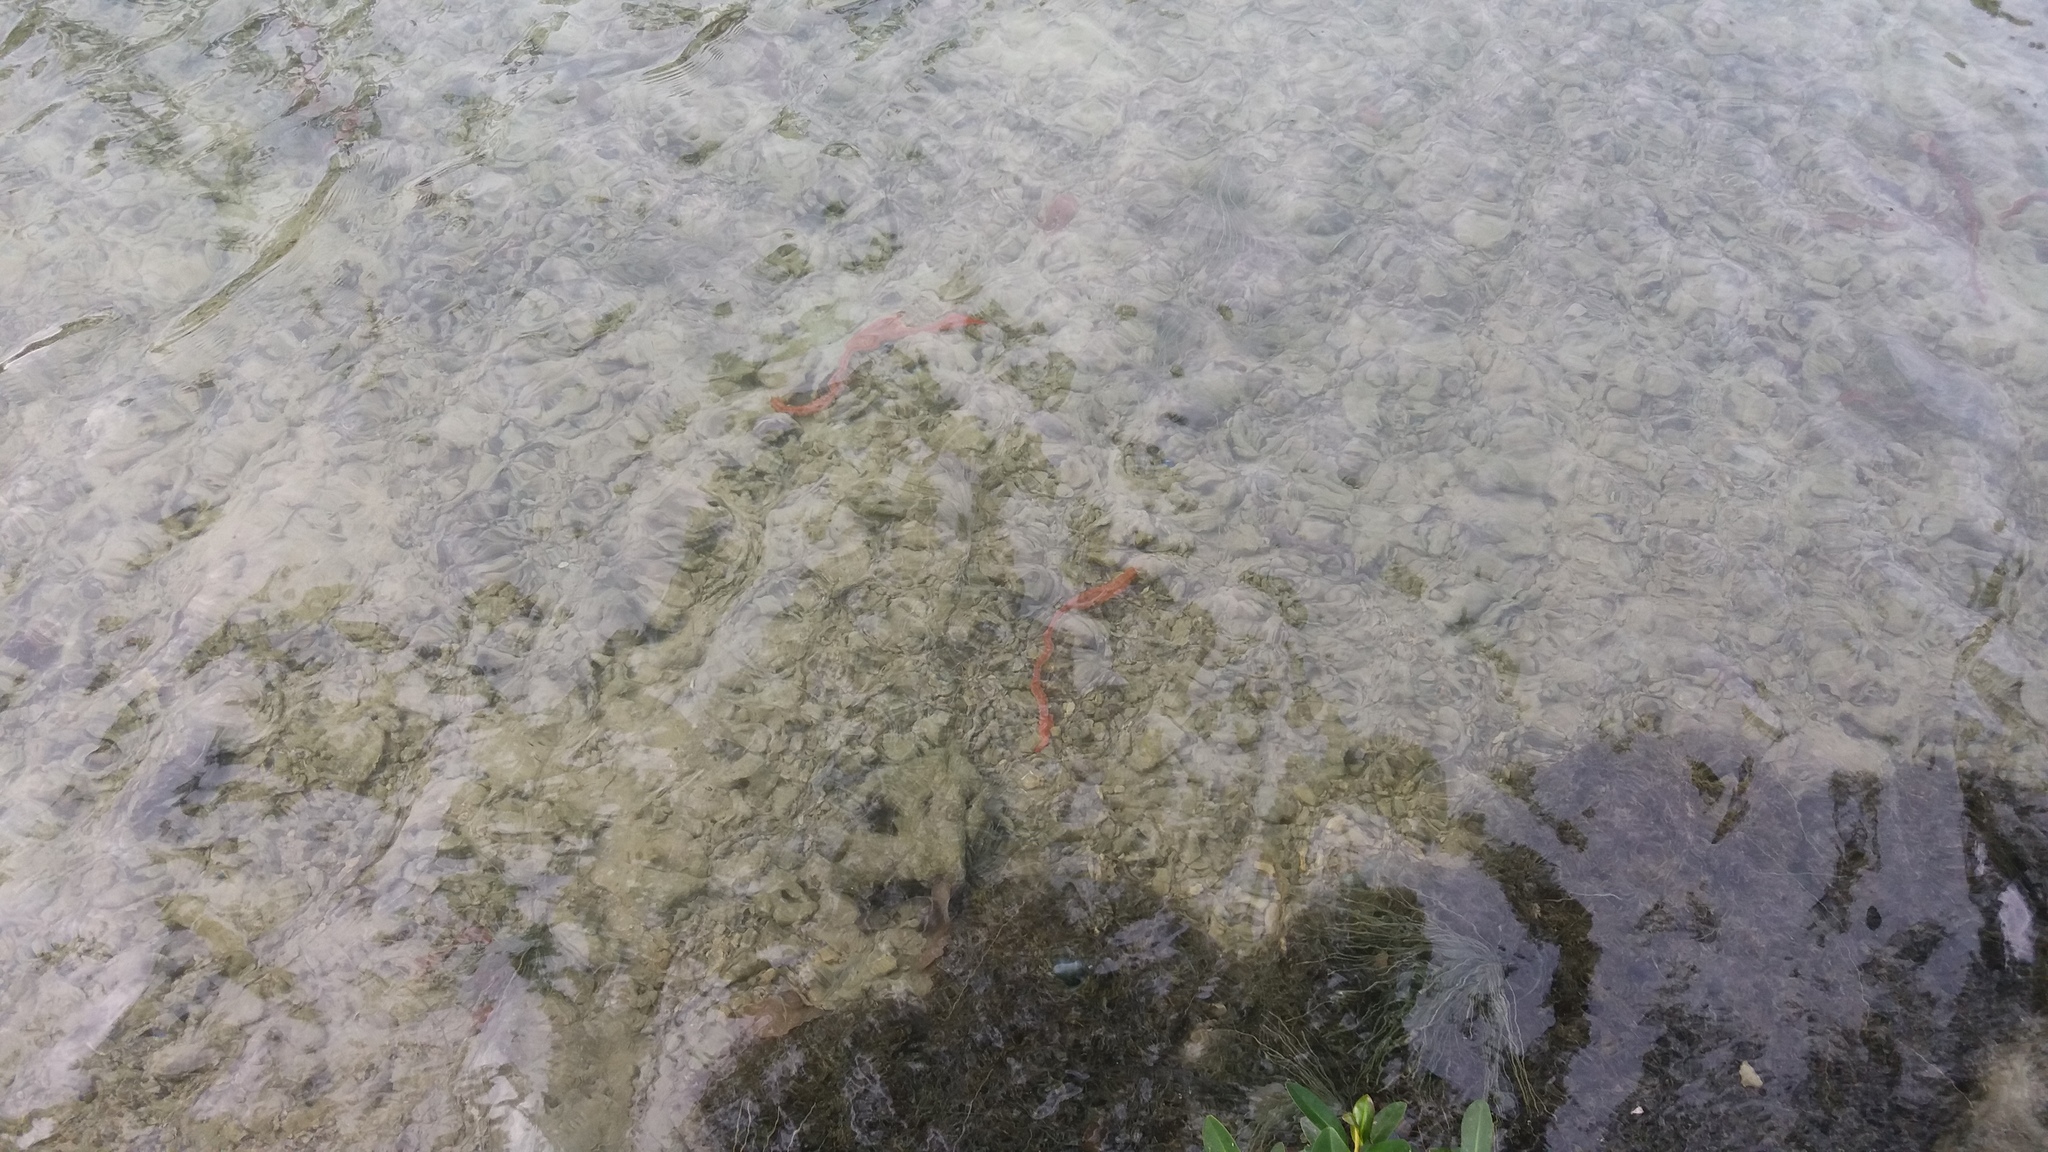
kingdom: Animalia
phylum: Echinodermata
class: Holothuroidea
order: Apodida
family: Synaptidae
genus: Opheodesoma
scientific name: Opheodesoma spectabilis
